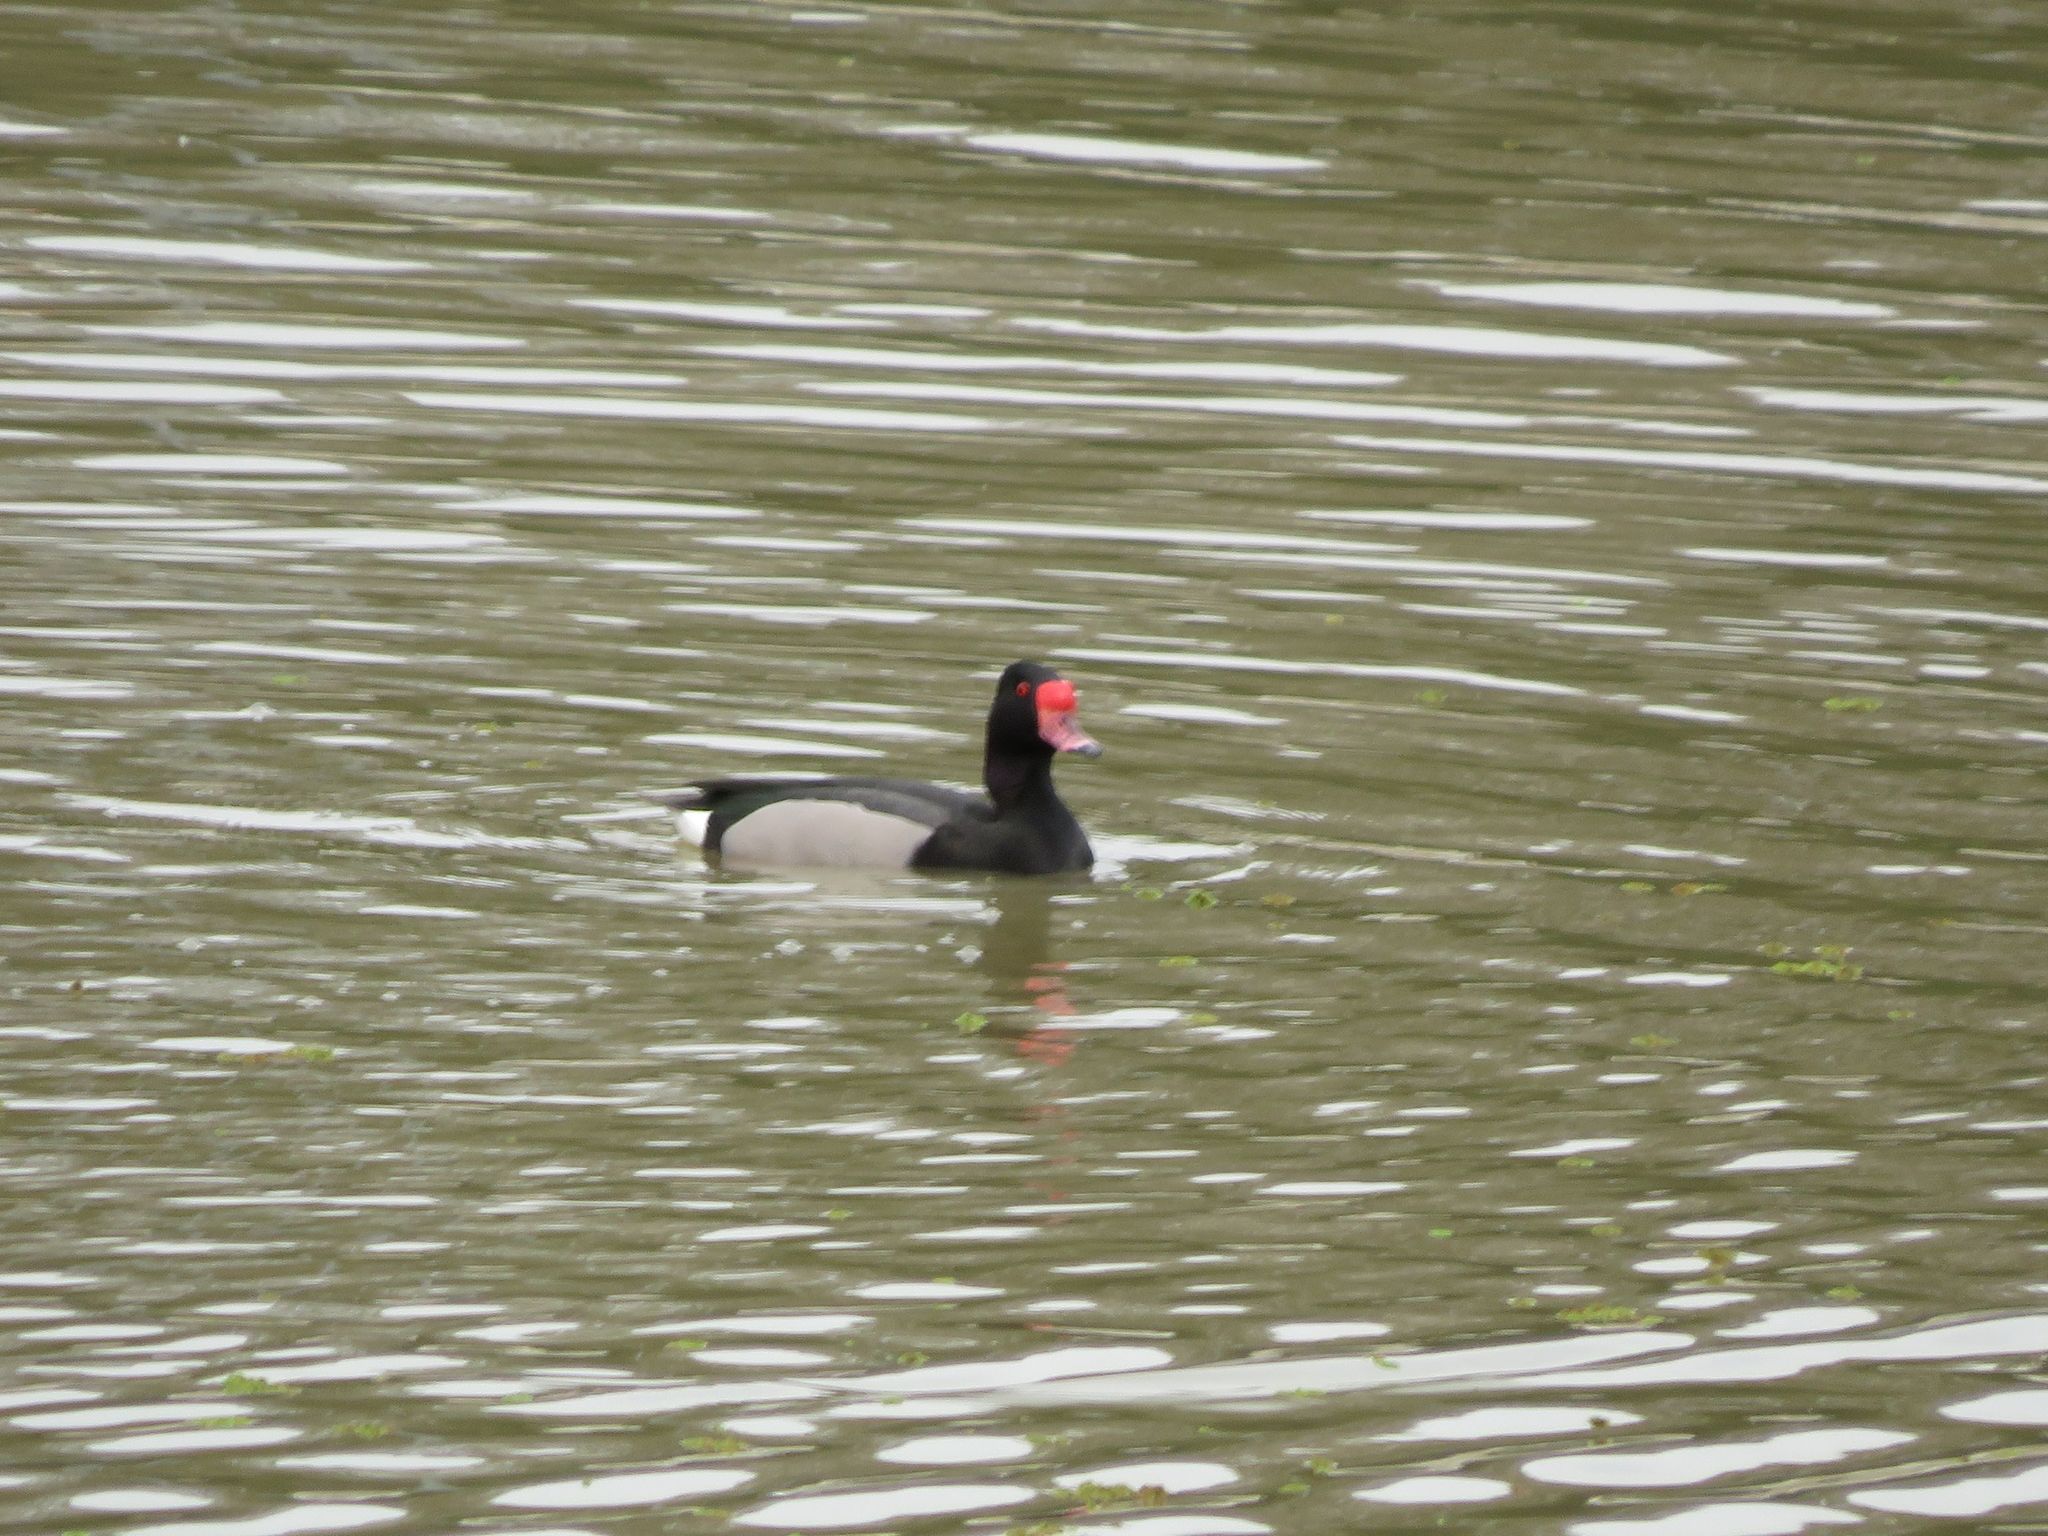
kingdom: Animalia
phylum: Chordata
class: Aves
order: Anseriformes
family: Anatidae
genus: Netta
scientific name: Netta peposaca
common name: Rosy-billed pochard
